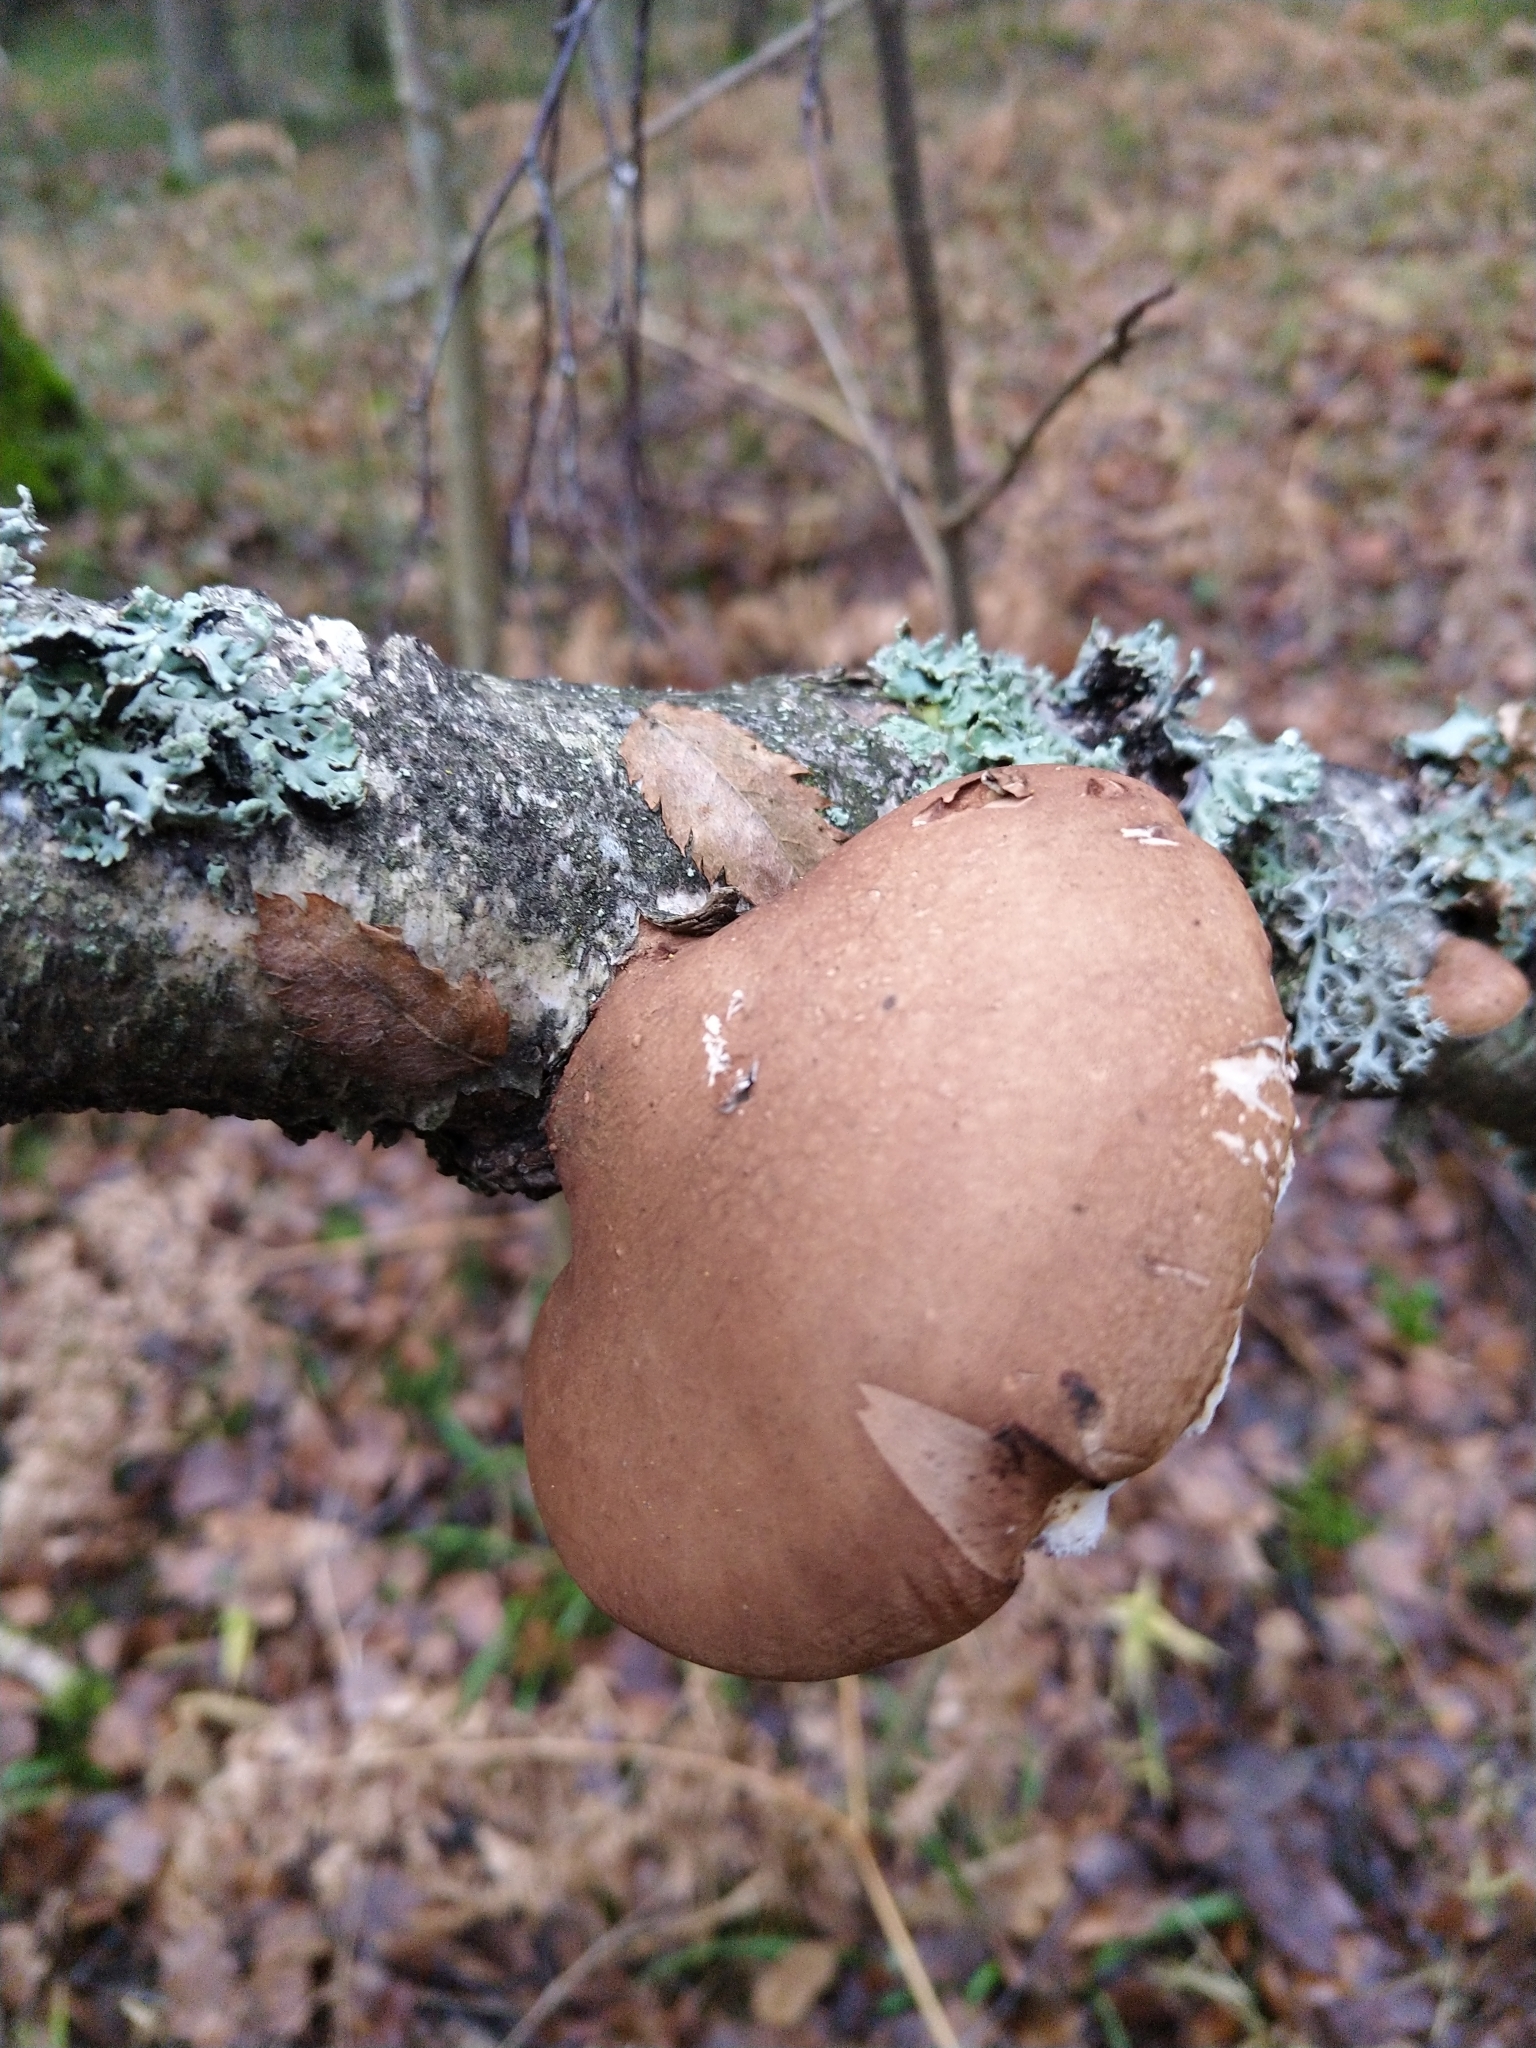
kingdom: Fungi
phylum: Basidiomycota
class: Agaricomycetes
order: Polyporales
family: Fomitopsidaceae
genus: Fomitopsis
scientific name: Fomitopsis betulina
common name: Birch polypore
